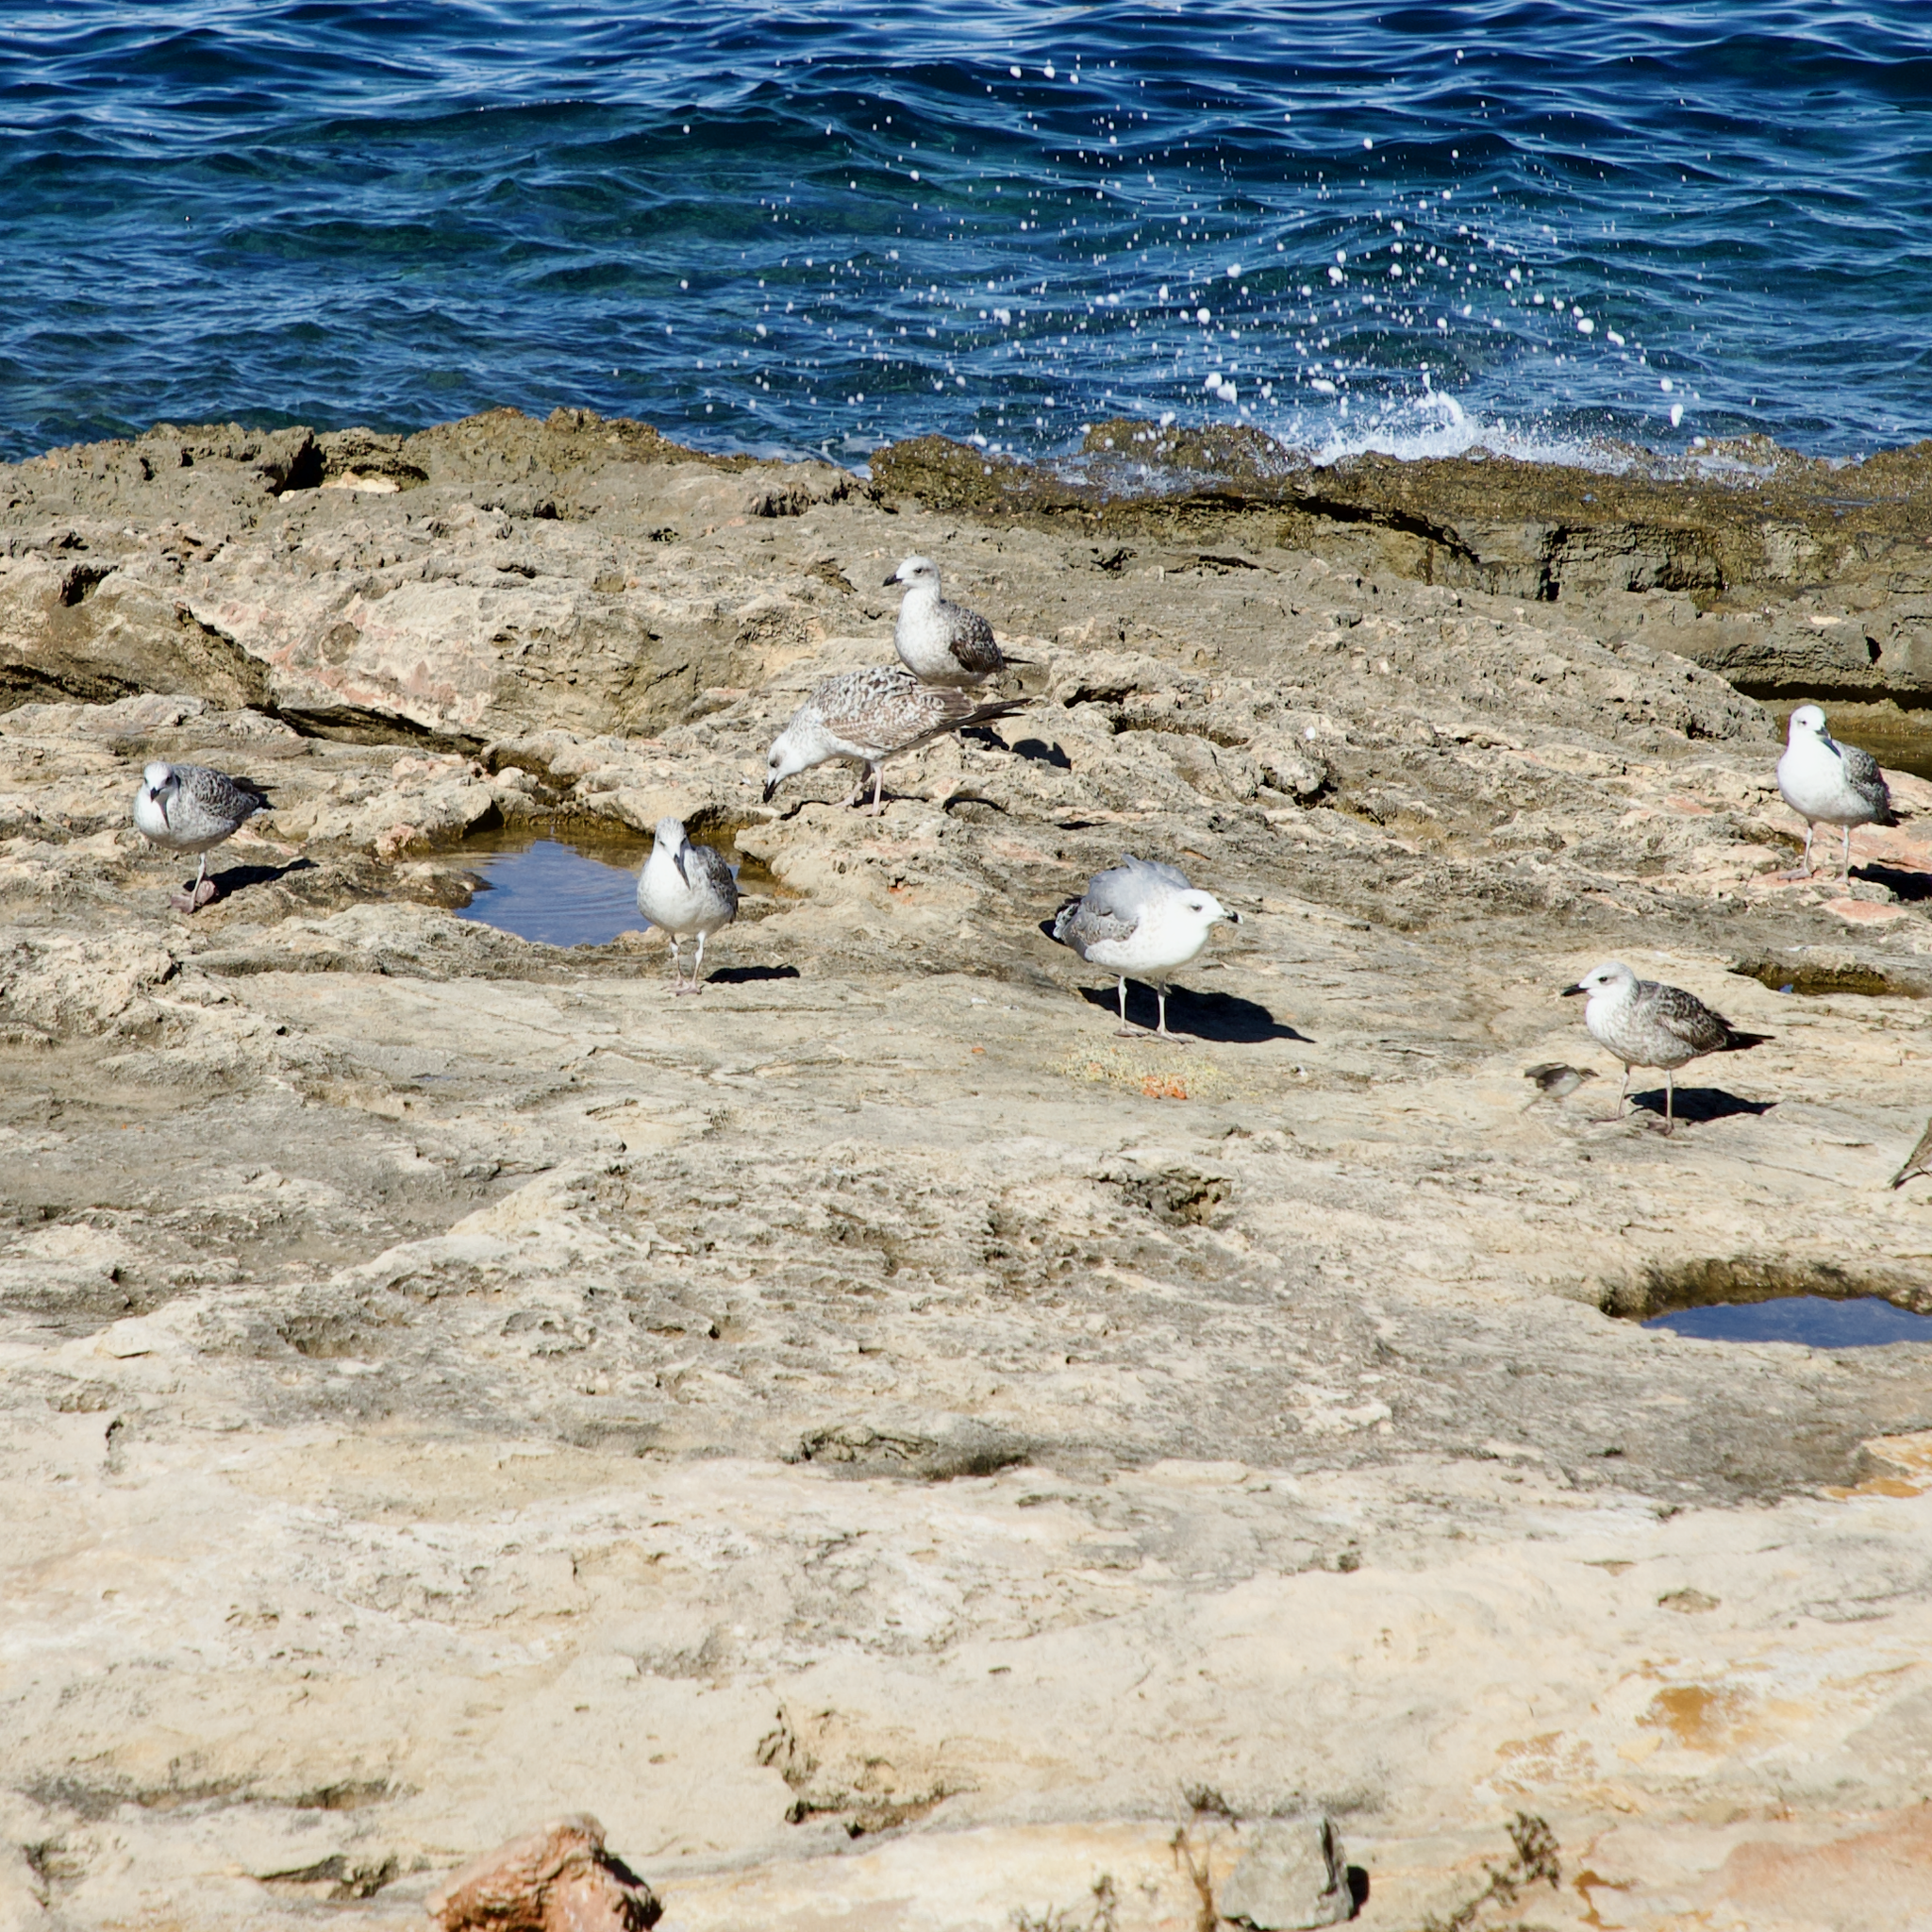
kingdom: Animalia
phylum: Chordata
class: Aves
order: Charadriiformes
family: Laridae
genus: Larus
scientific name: Larus michahellis
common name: Yellow-legged gull
